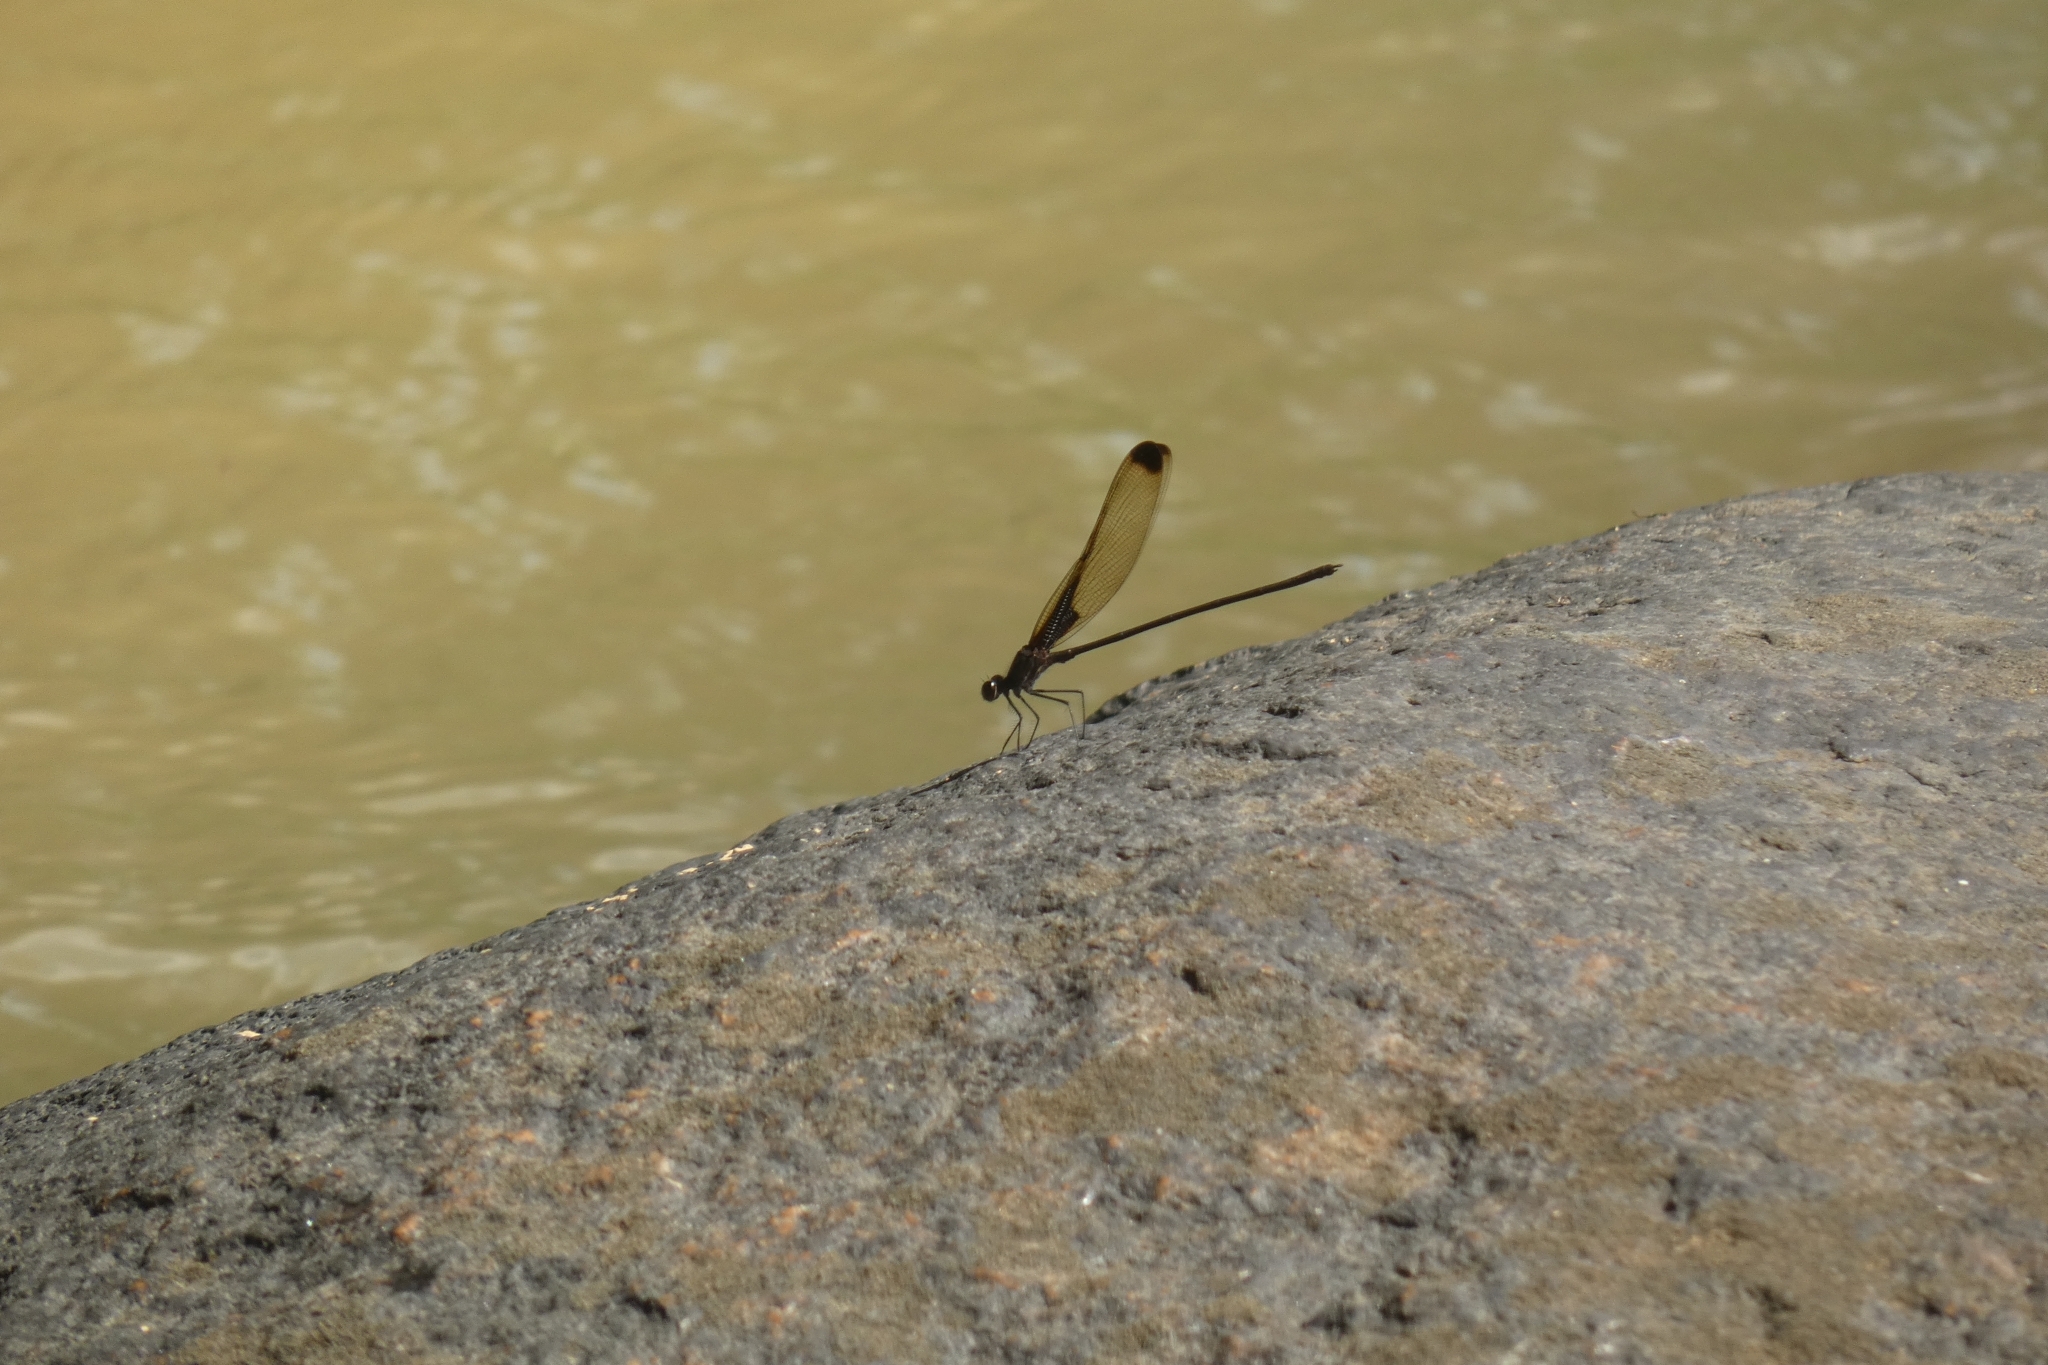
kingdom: Animalia
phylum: Arthropoda
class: Insecta
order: Odonata
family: Calopterygidae
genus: Hetaerina
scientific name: Hetaerina titia
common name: Smoky rubyspot
